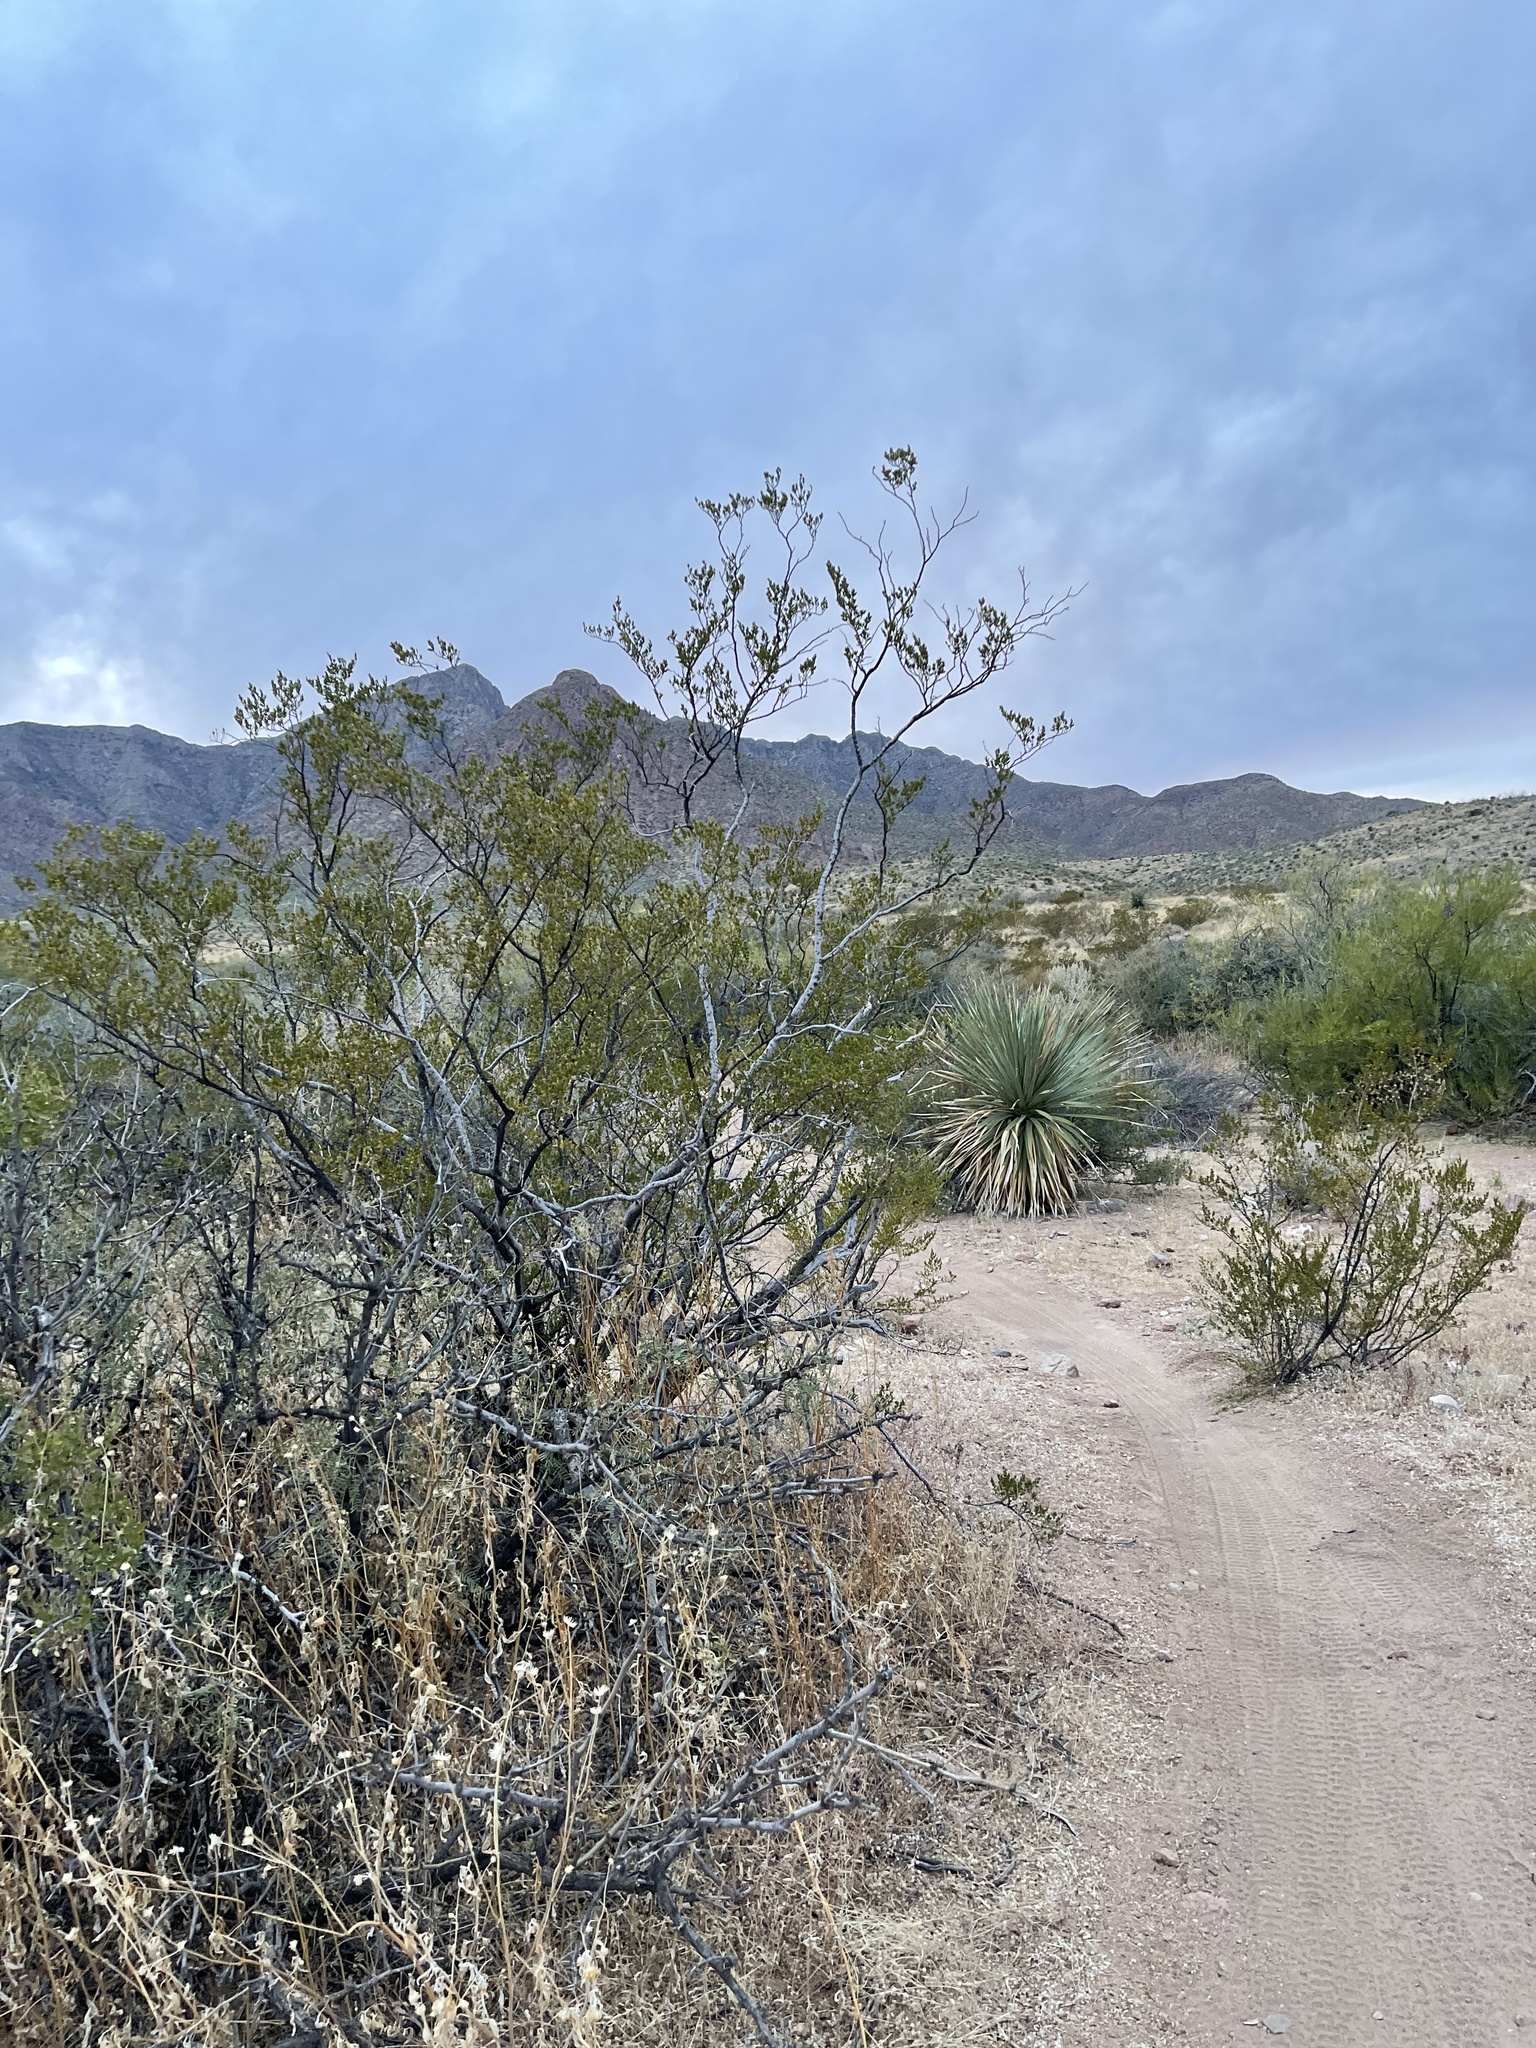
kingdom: Plantae
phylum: Tracheophyta
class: Magnoliopsida
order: Zygophyllales
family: Zygophyllaceae
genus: Larrea
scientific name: Larrea tridentata
